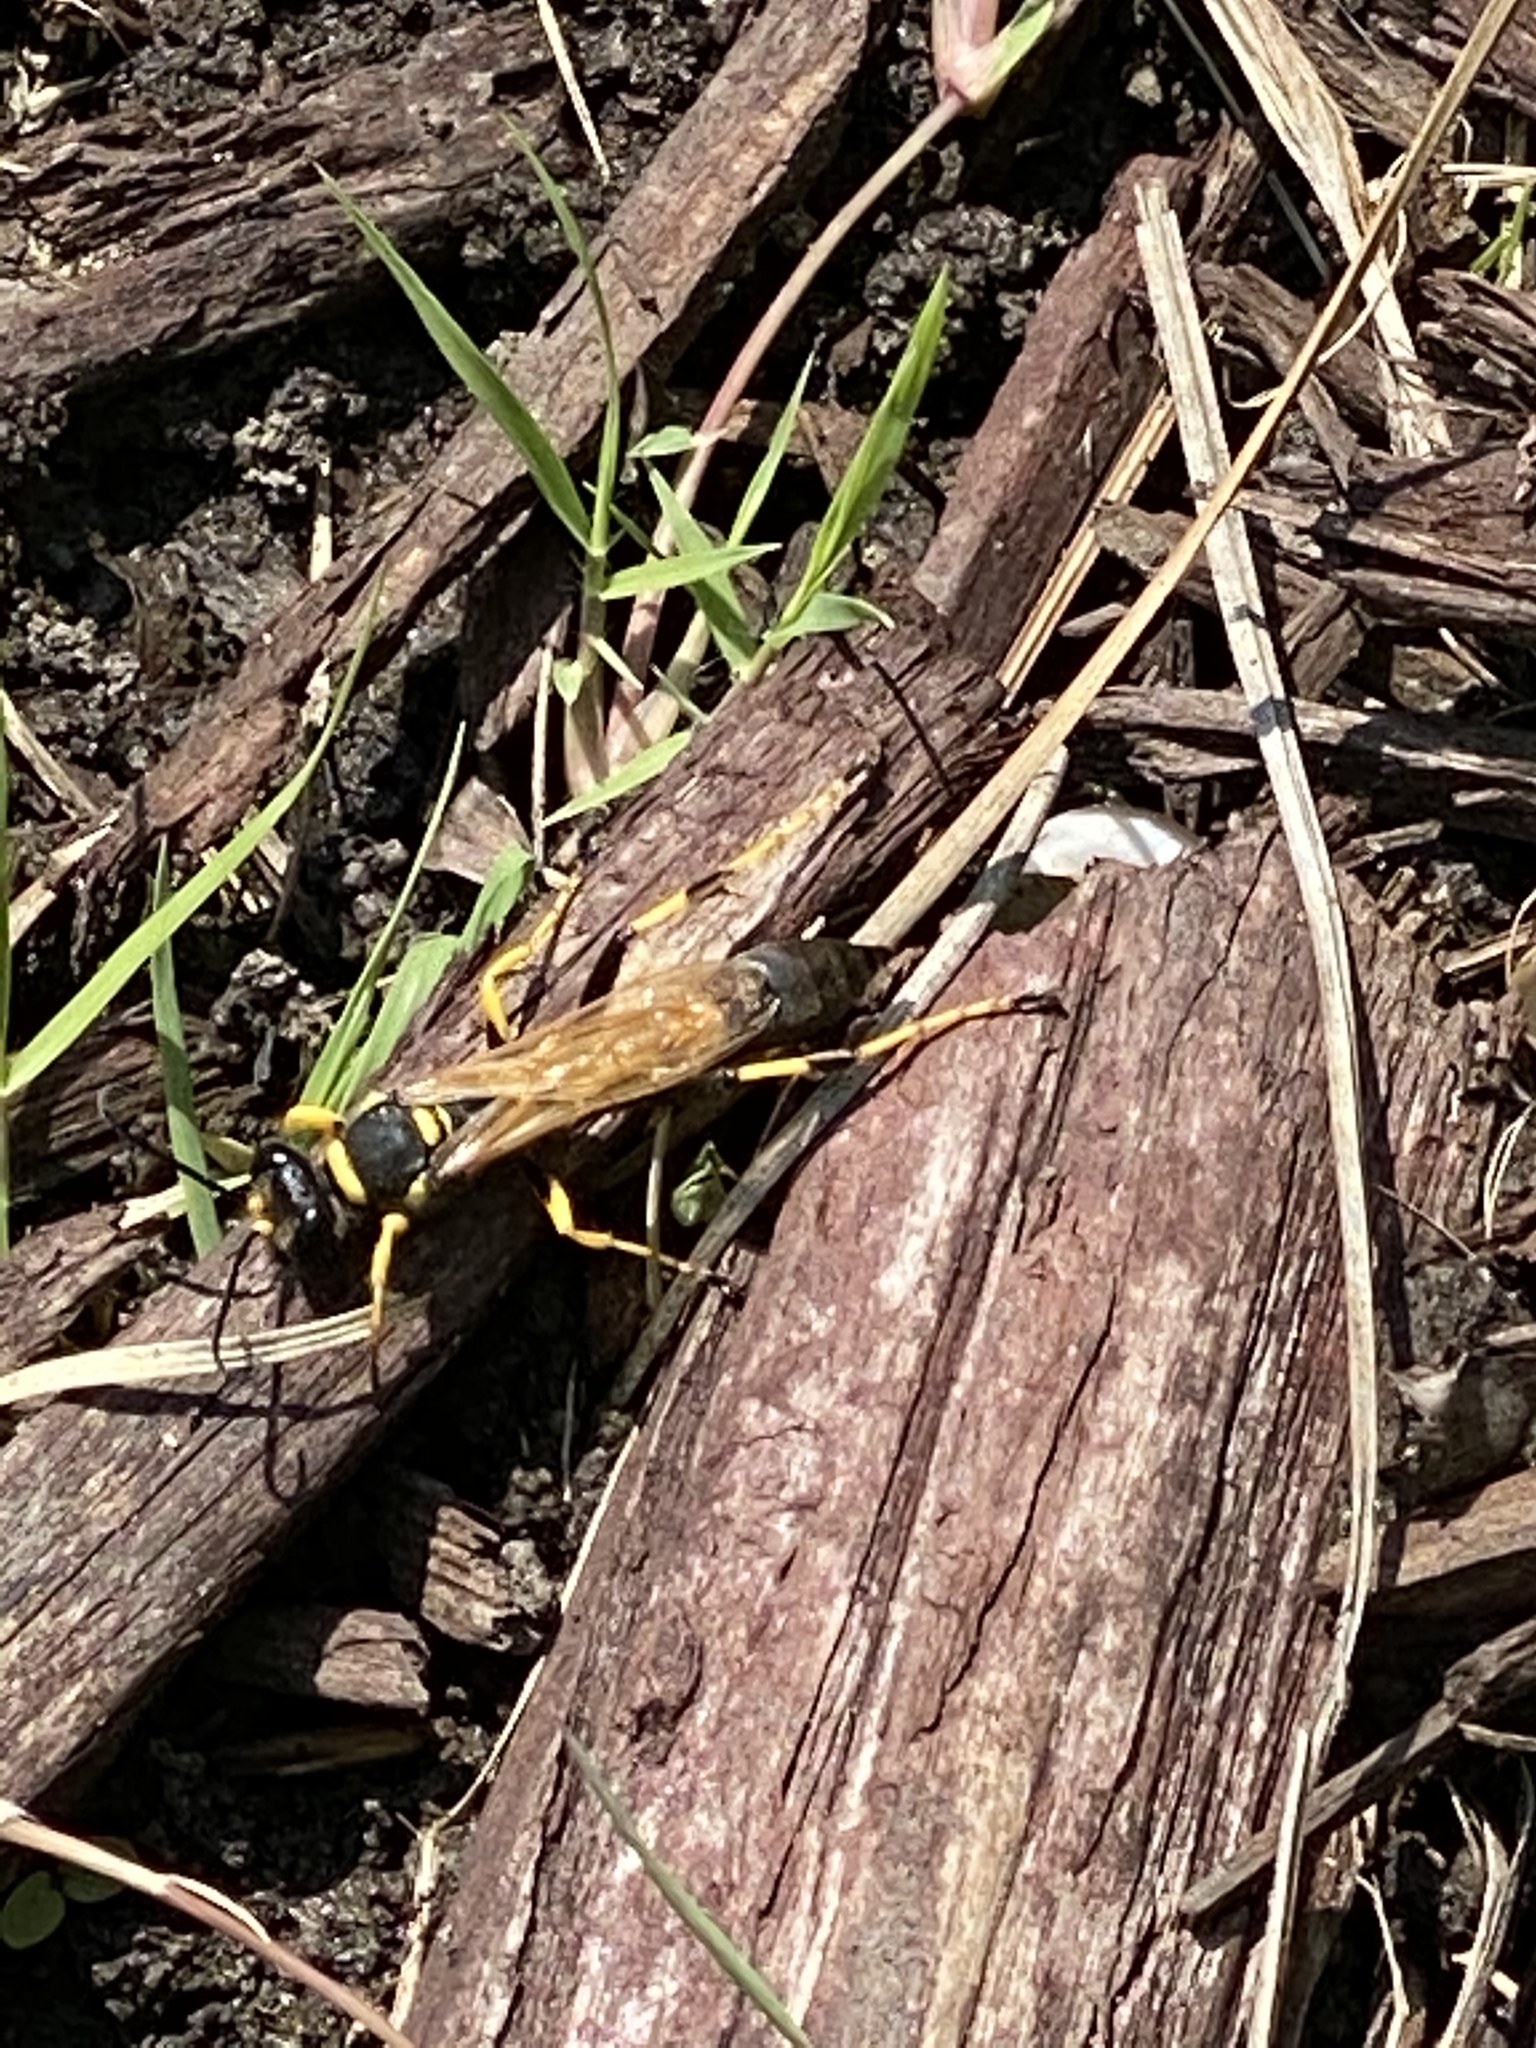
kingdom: Animalia
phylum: Arthropoda
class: Insecta
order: Hymenoptera
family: Sphecidae
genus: Sceliphron
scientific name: Sceliphron caementarium
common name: Mud dauber
